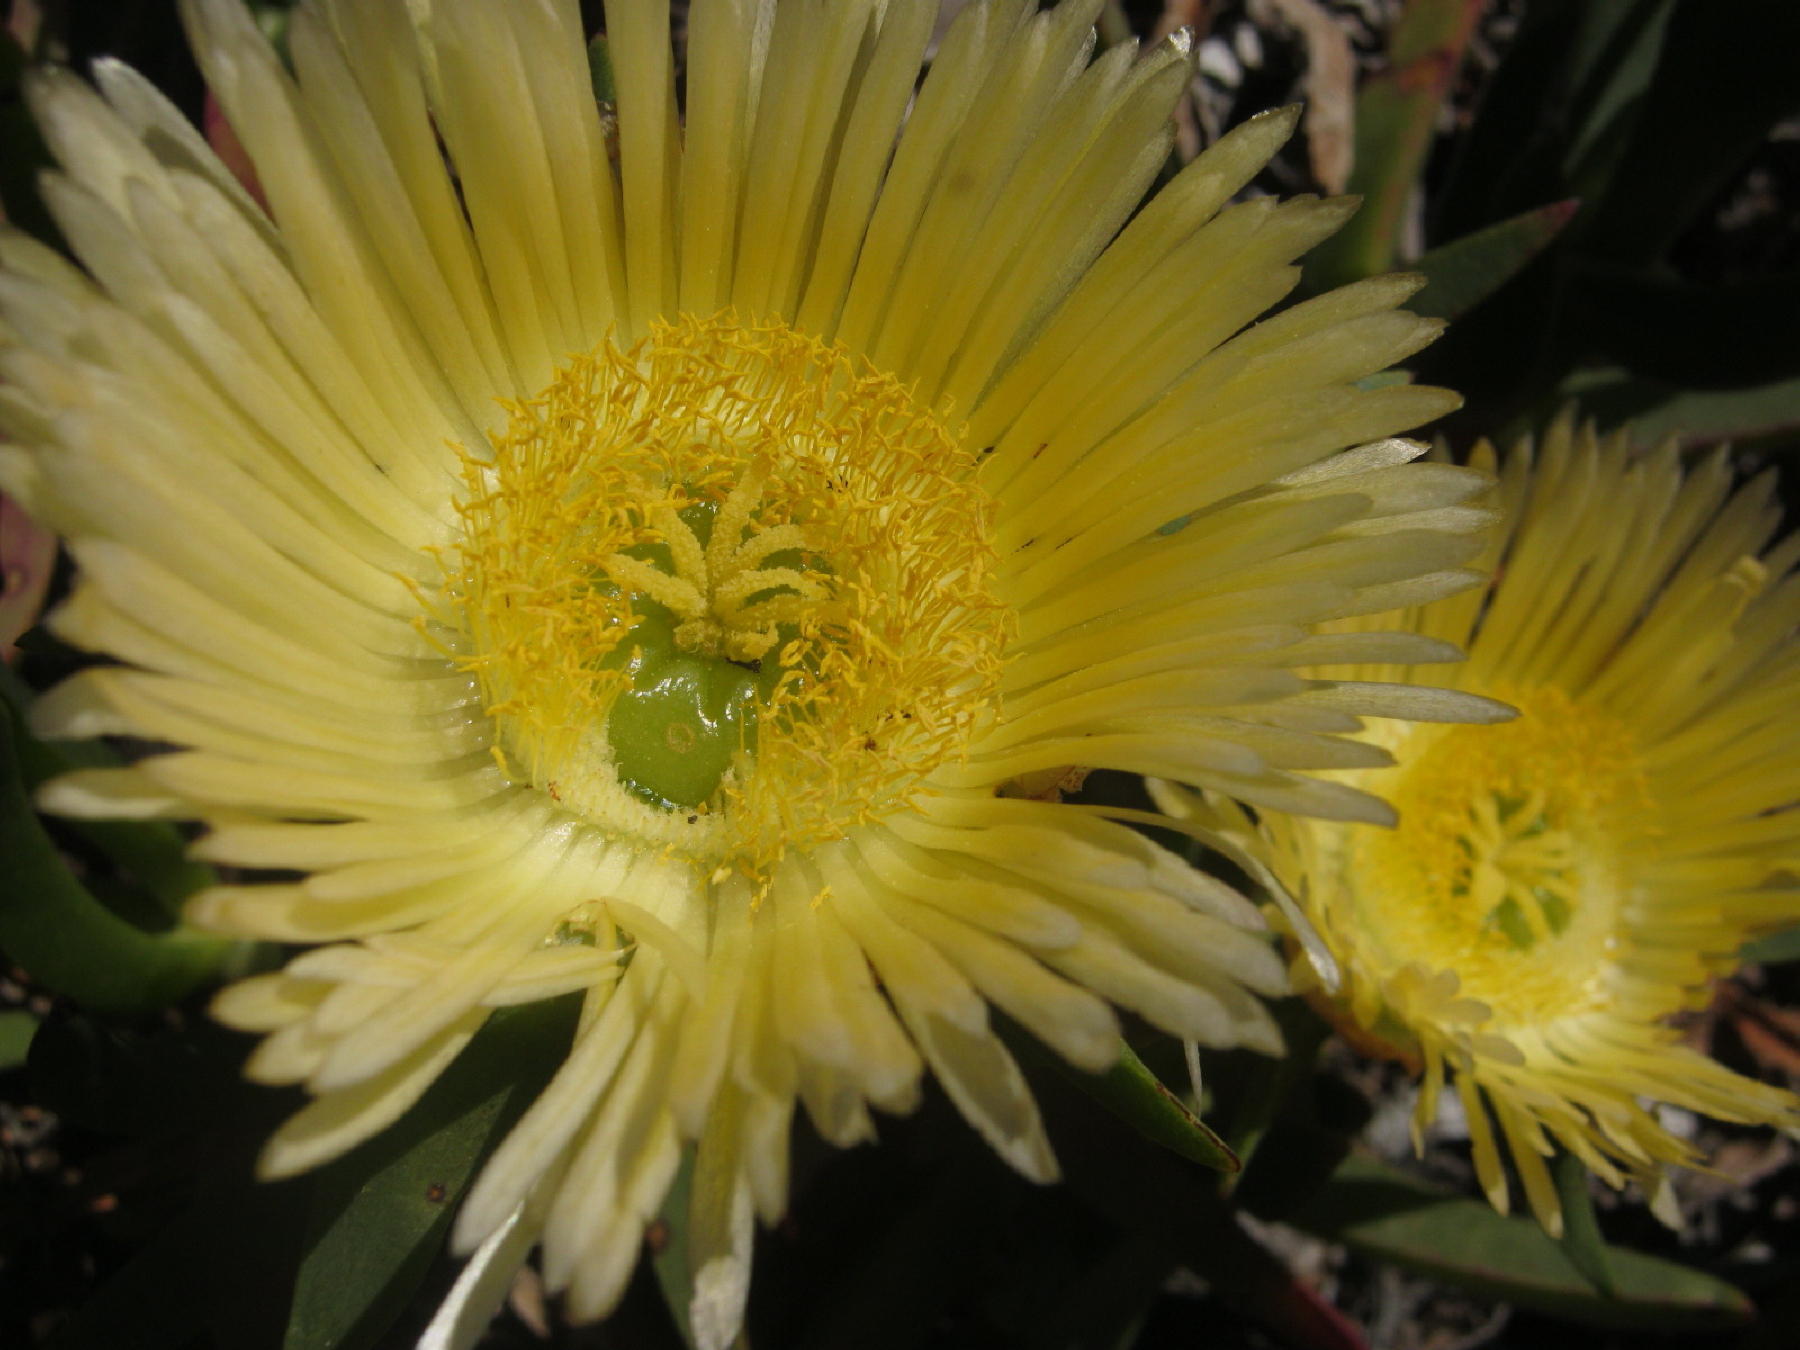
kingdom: Plantae
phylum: Tracheophyta
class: Magnoliopsida
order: Caryophyllales
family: Aizoaceae
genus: Carpobrotus
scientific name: Carpobrotus edulis
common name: Hottentot-fig
